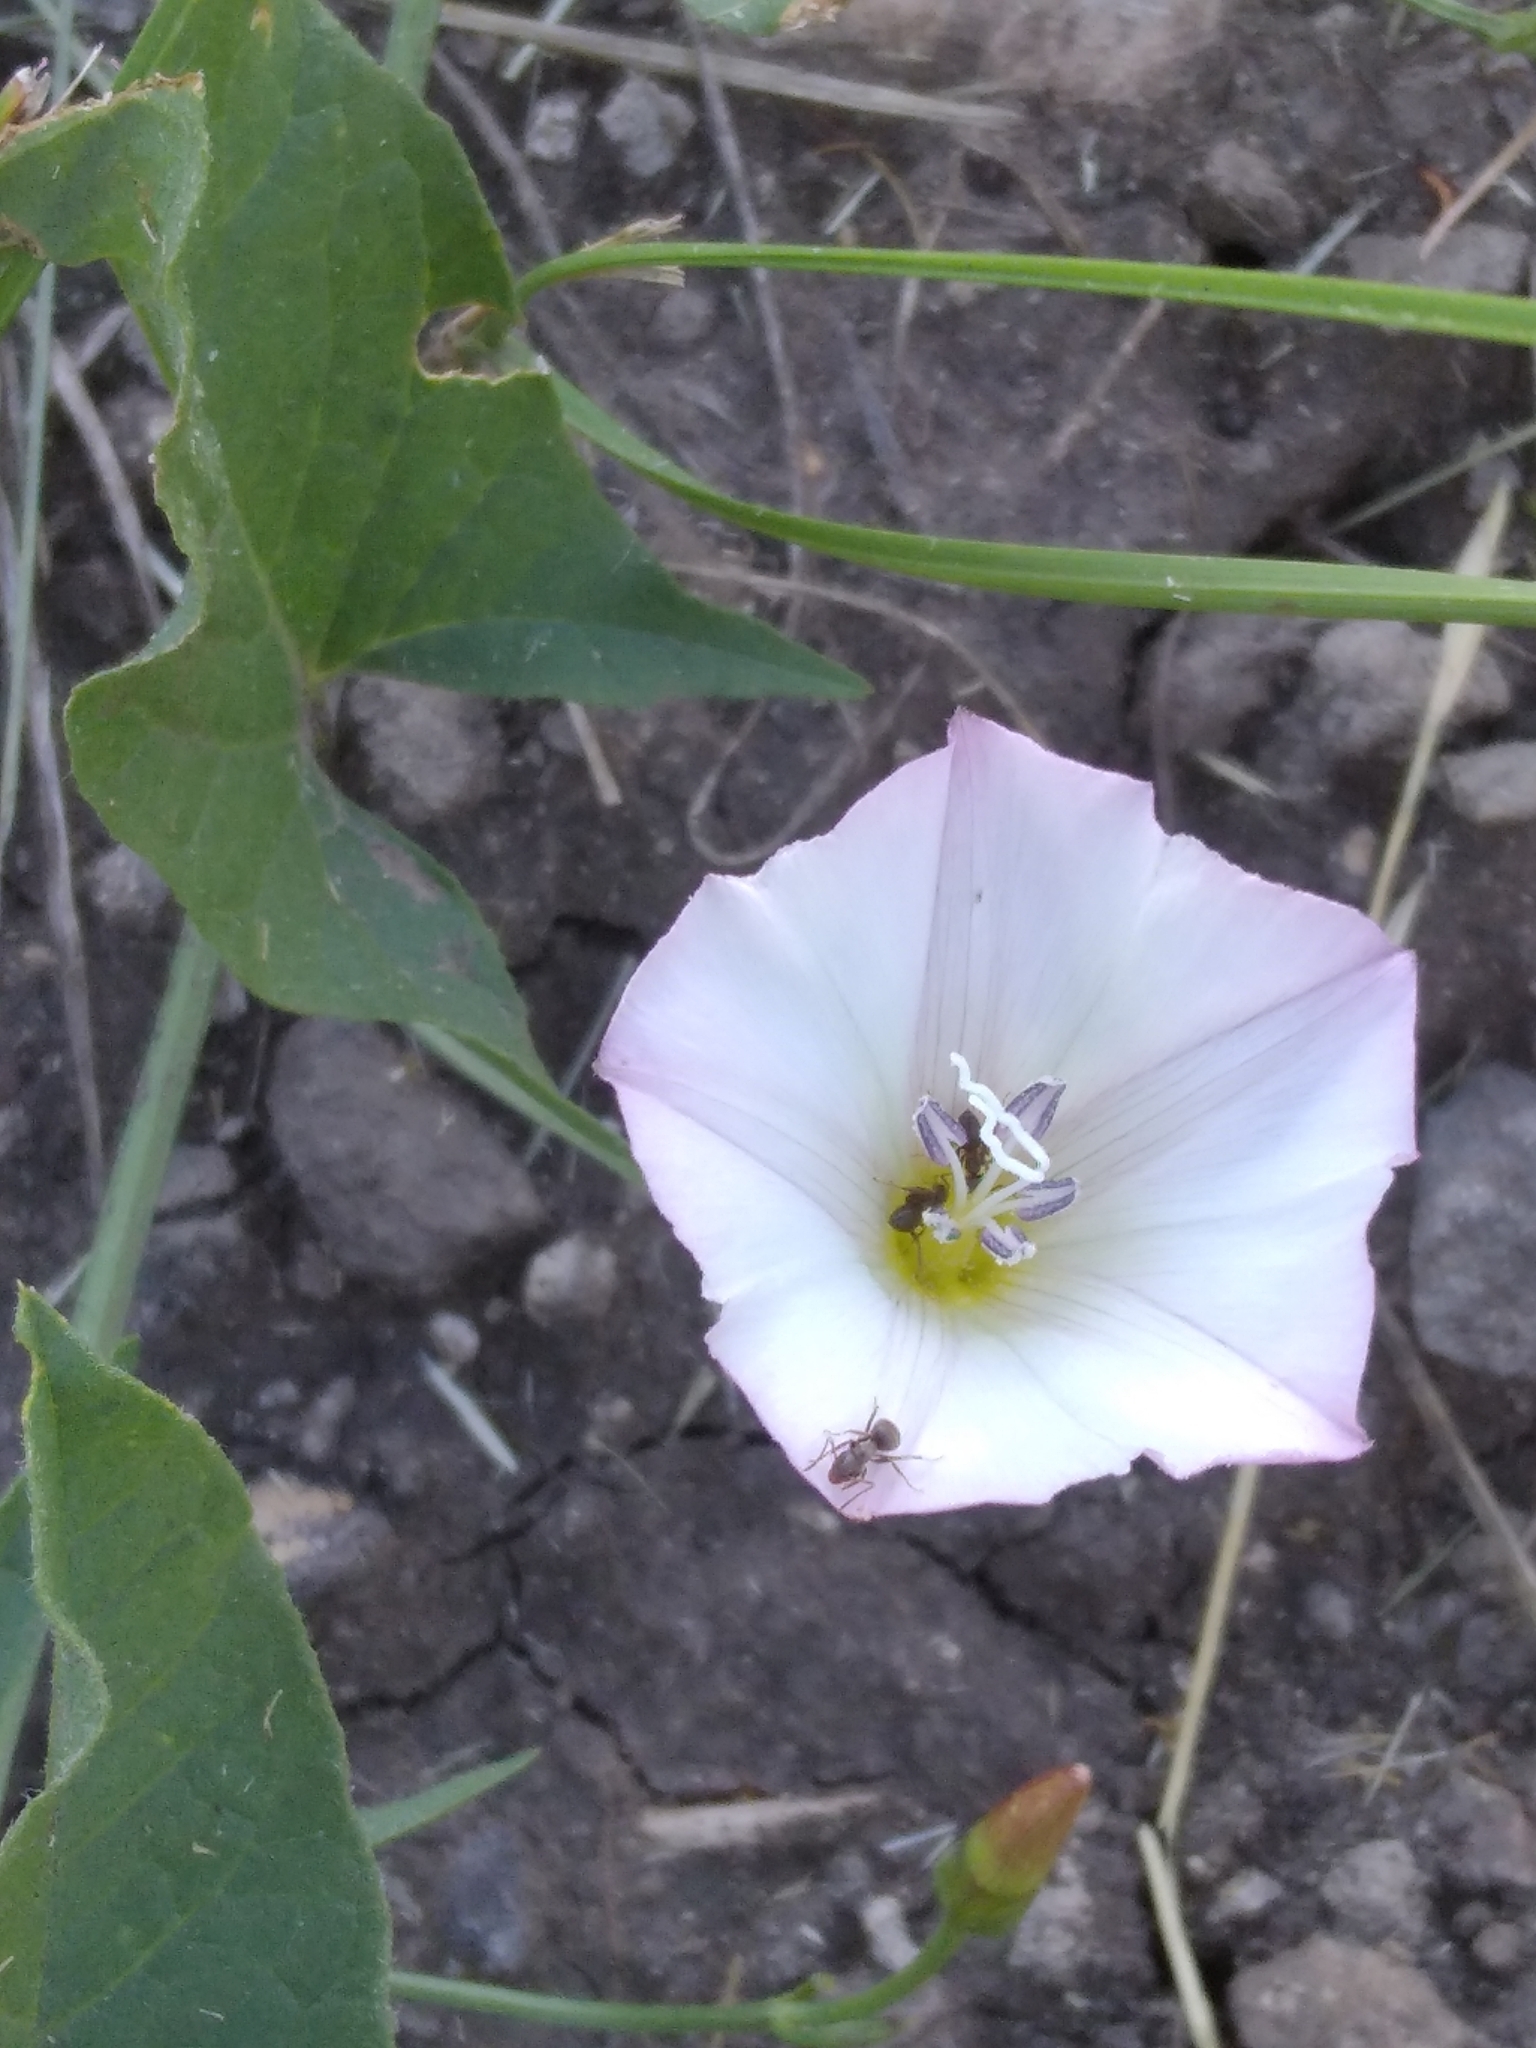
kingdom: Plantae
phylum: Tracheophyta
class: Magnoliopsida
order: Solanales
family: Convolvulaceae
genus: Convolvulus
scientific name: Convolvulus arvensis
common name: Field bindweed
